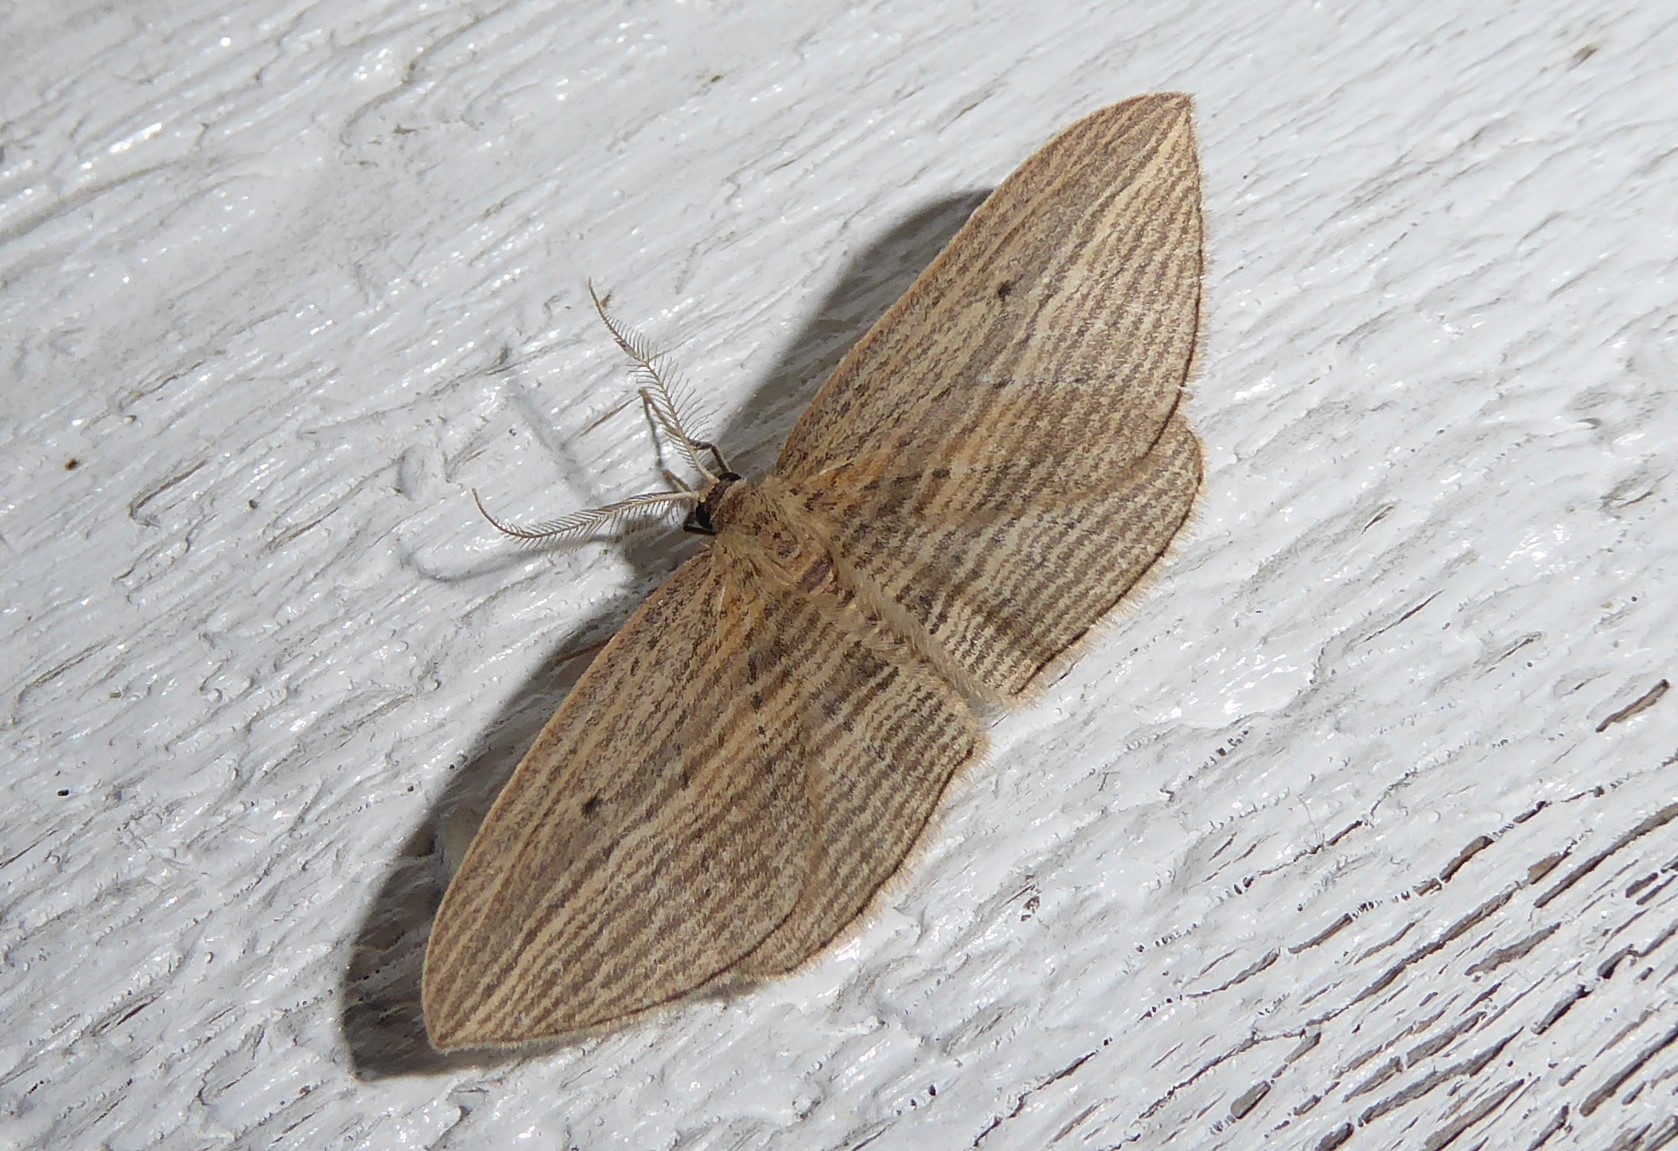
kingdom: Animalia
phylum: Arthropoda
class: Insecta
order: Lepidoptera
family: Geometridae
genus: Epiphryne
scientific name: Epiphryne verriculata
